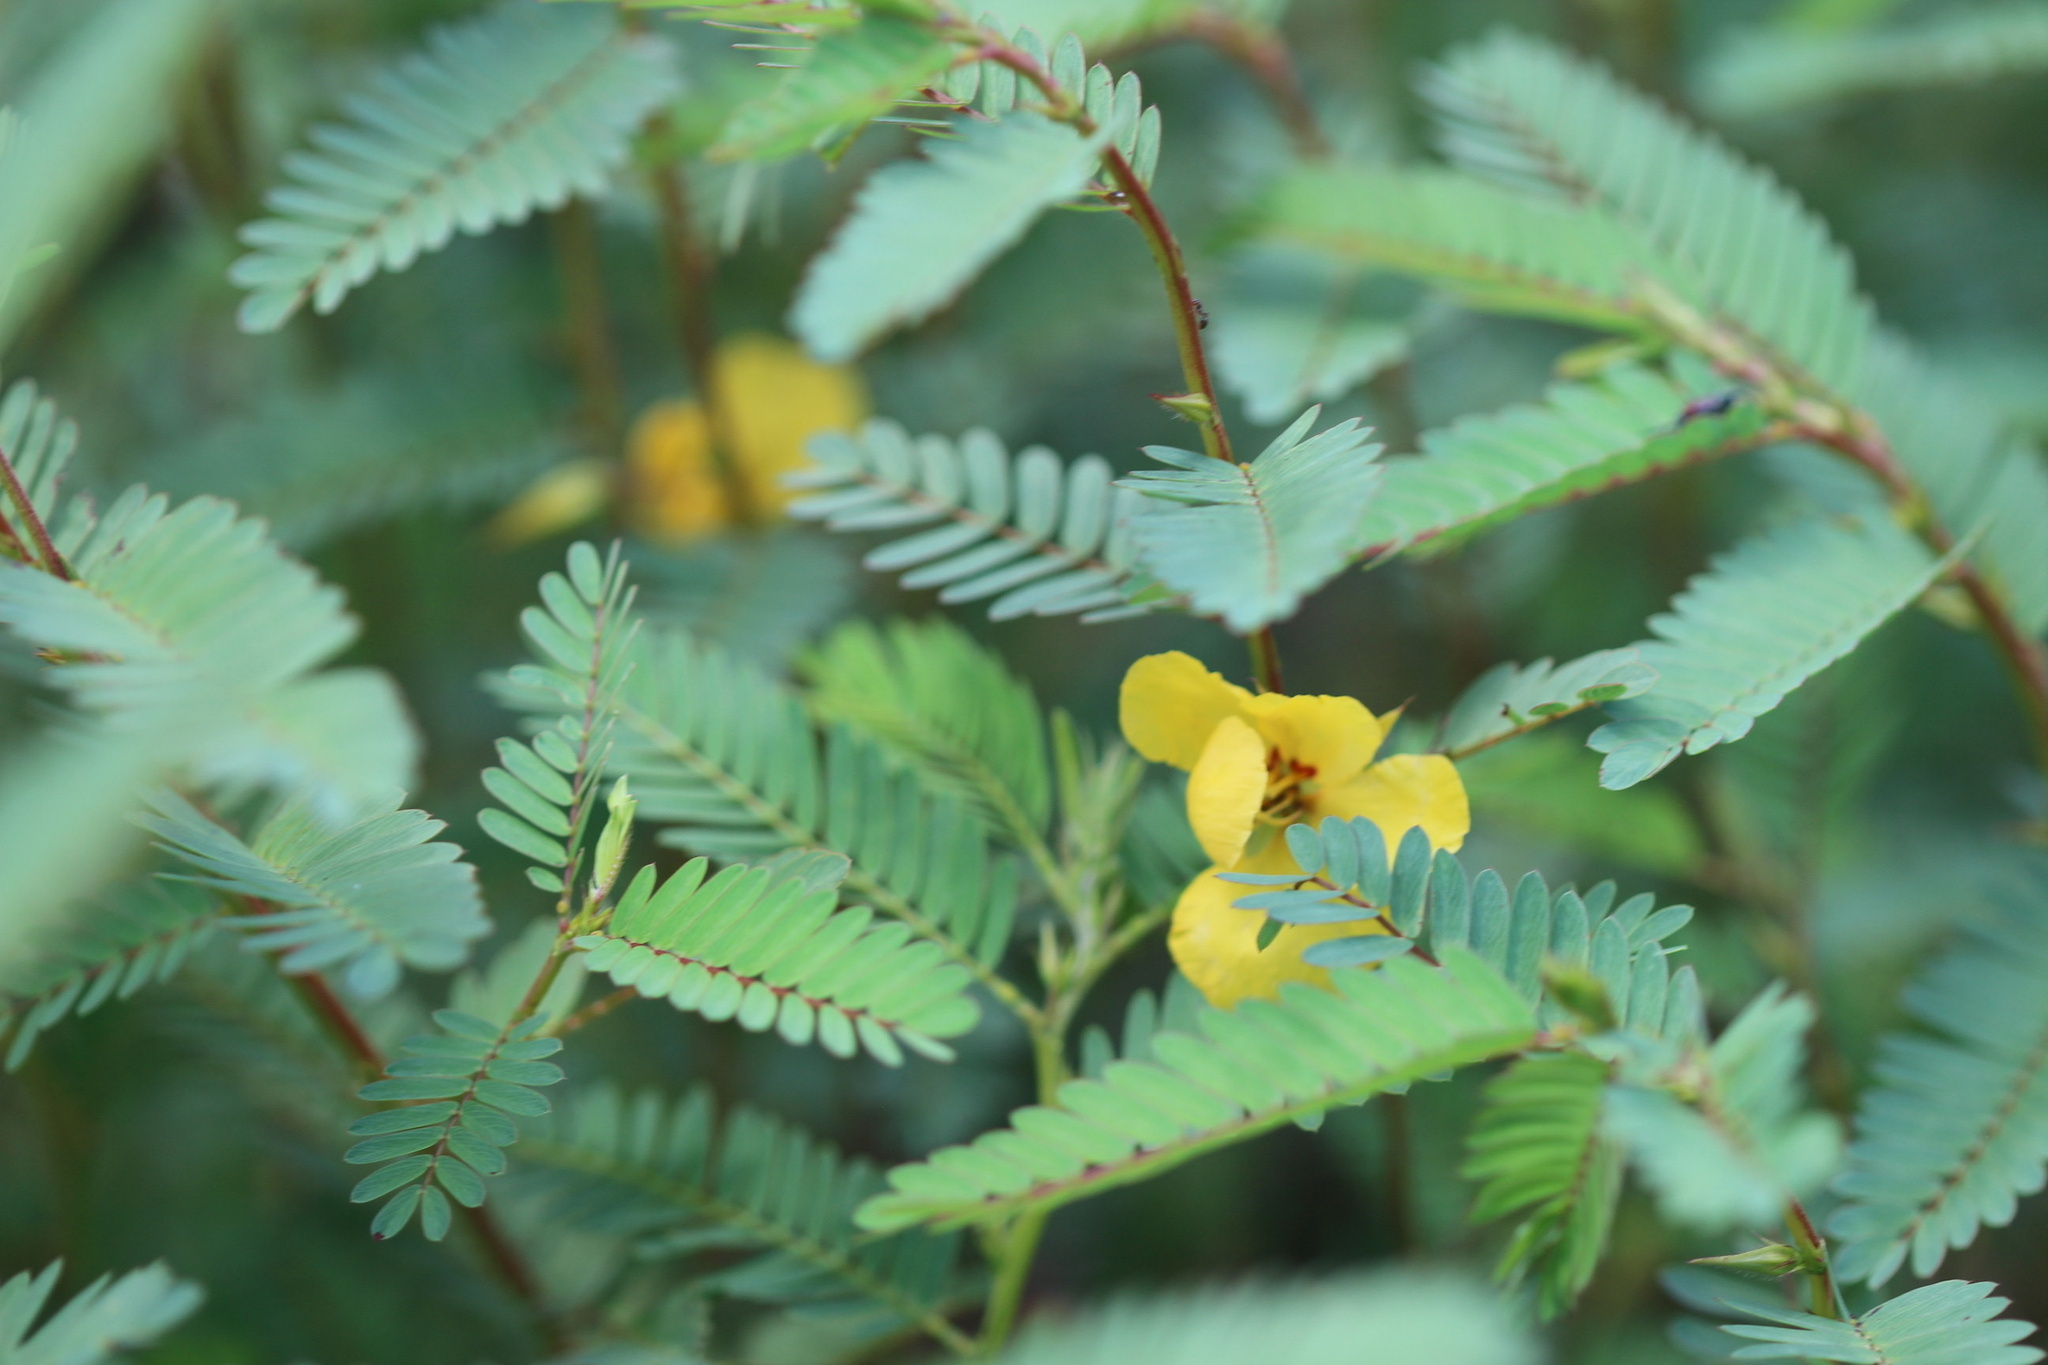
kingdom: Plantae
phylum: Tracheophyta
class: Magnoliopsida
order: Fabales
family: Fabaceae
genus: Chamaecrista
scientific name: Chamaecrista fasciculata
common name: Golden cassia
